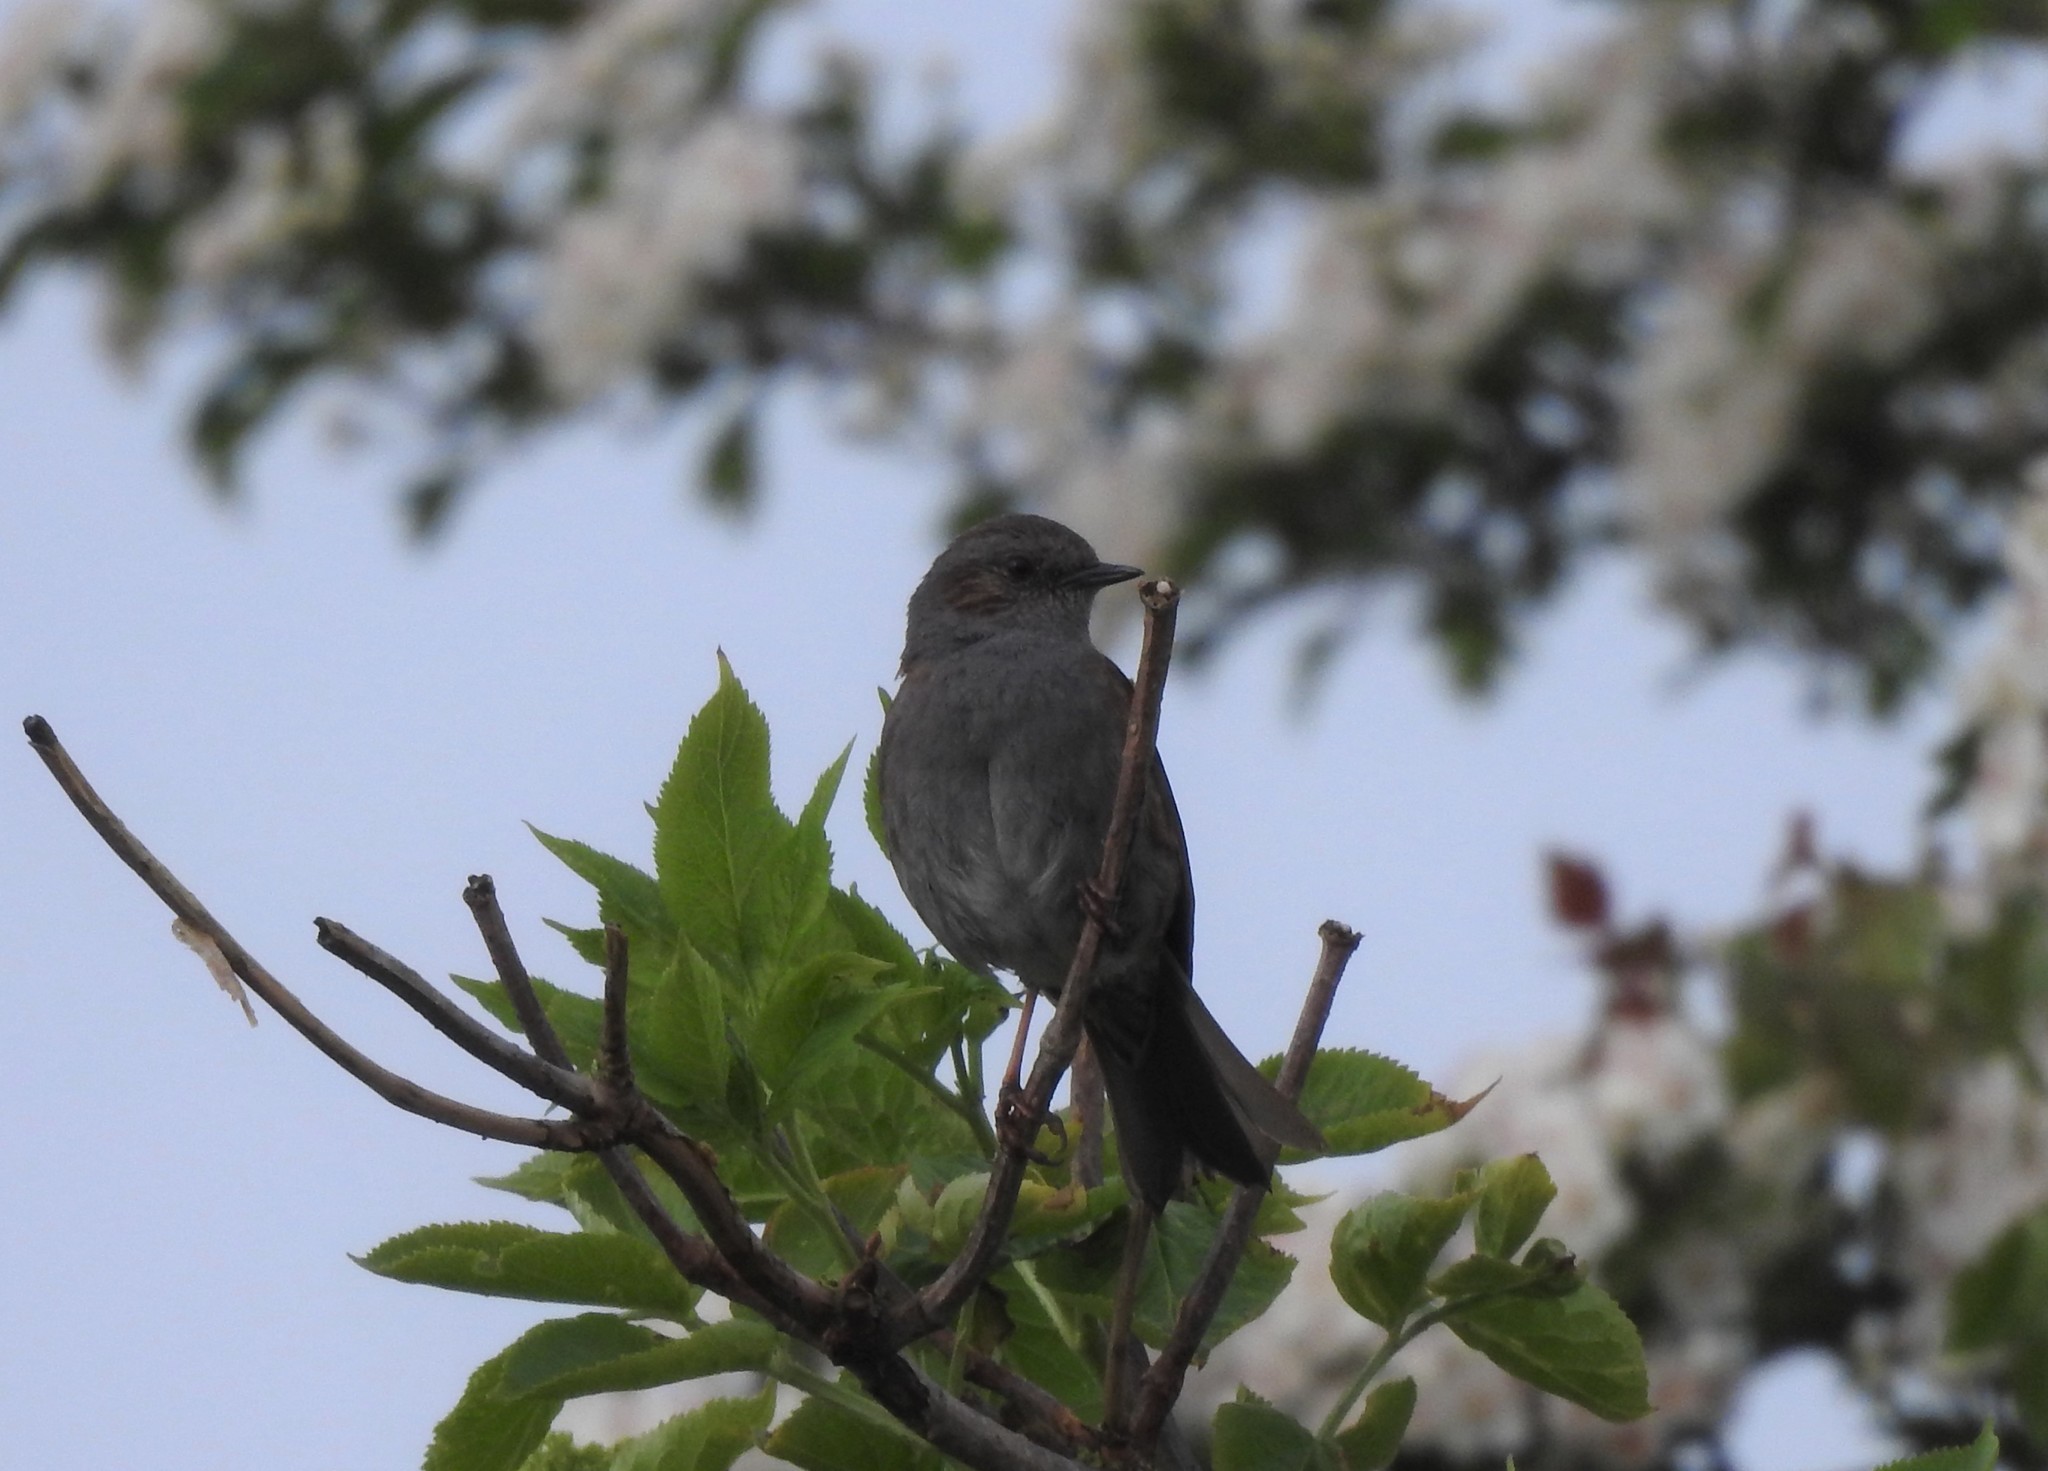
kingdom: Animalia
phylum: Chordata
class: Aves
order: Passeriformes
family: Prunellidae
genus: Prunella
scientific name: Prunella modularis
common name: Dunnock
